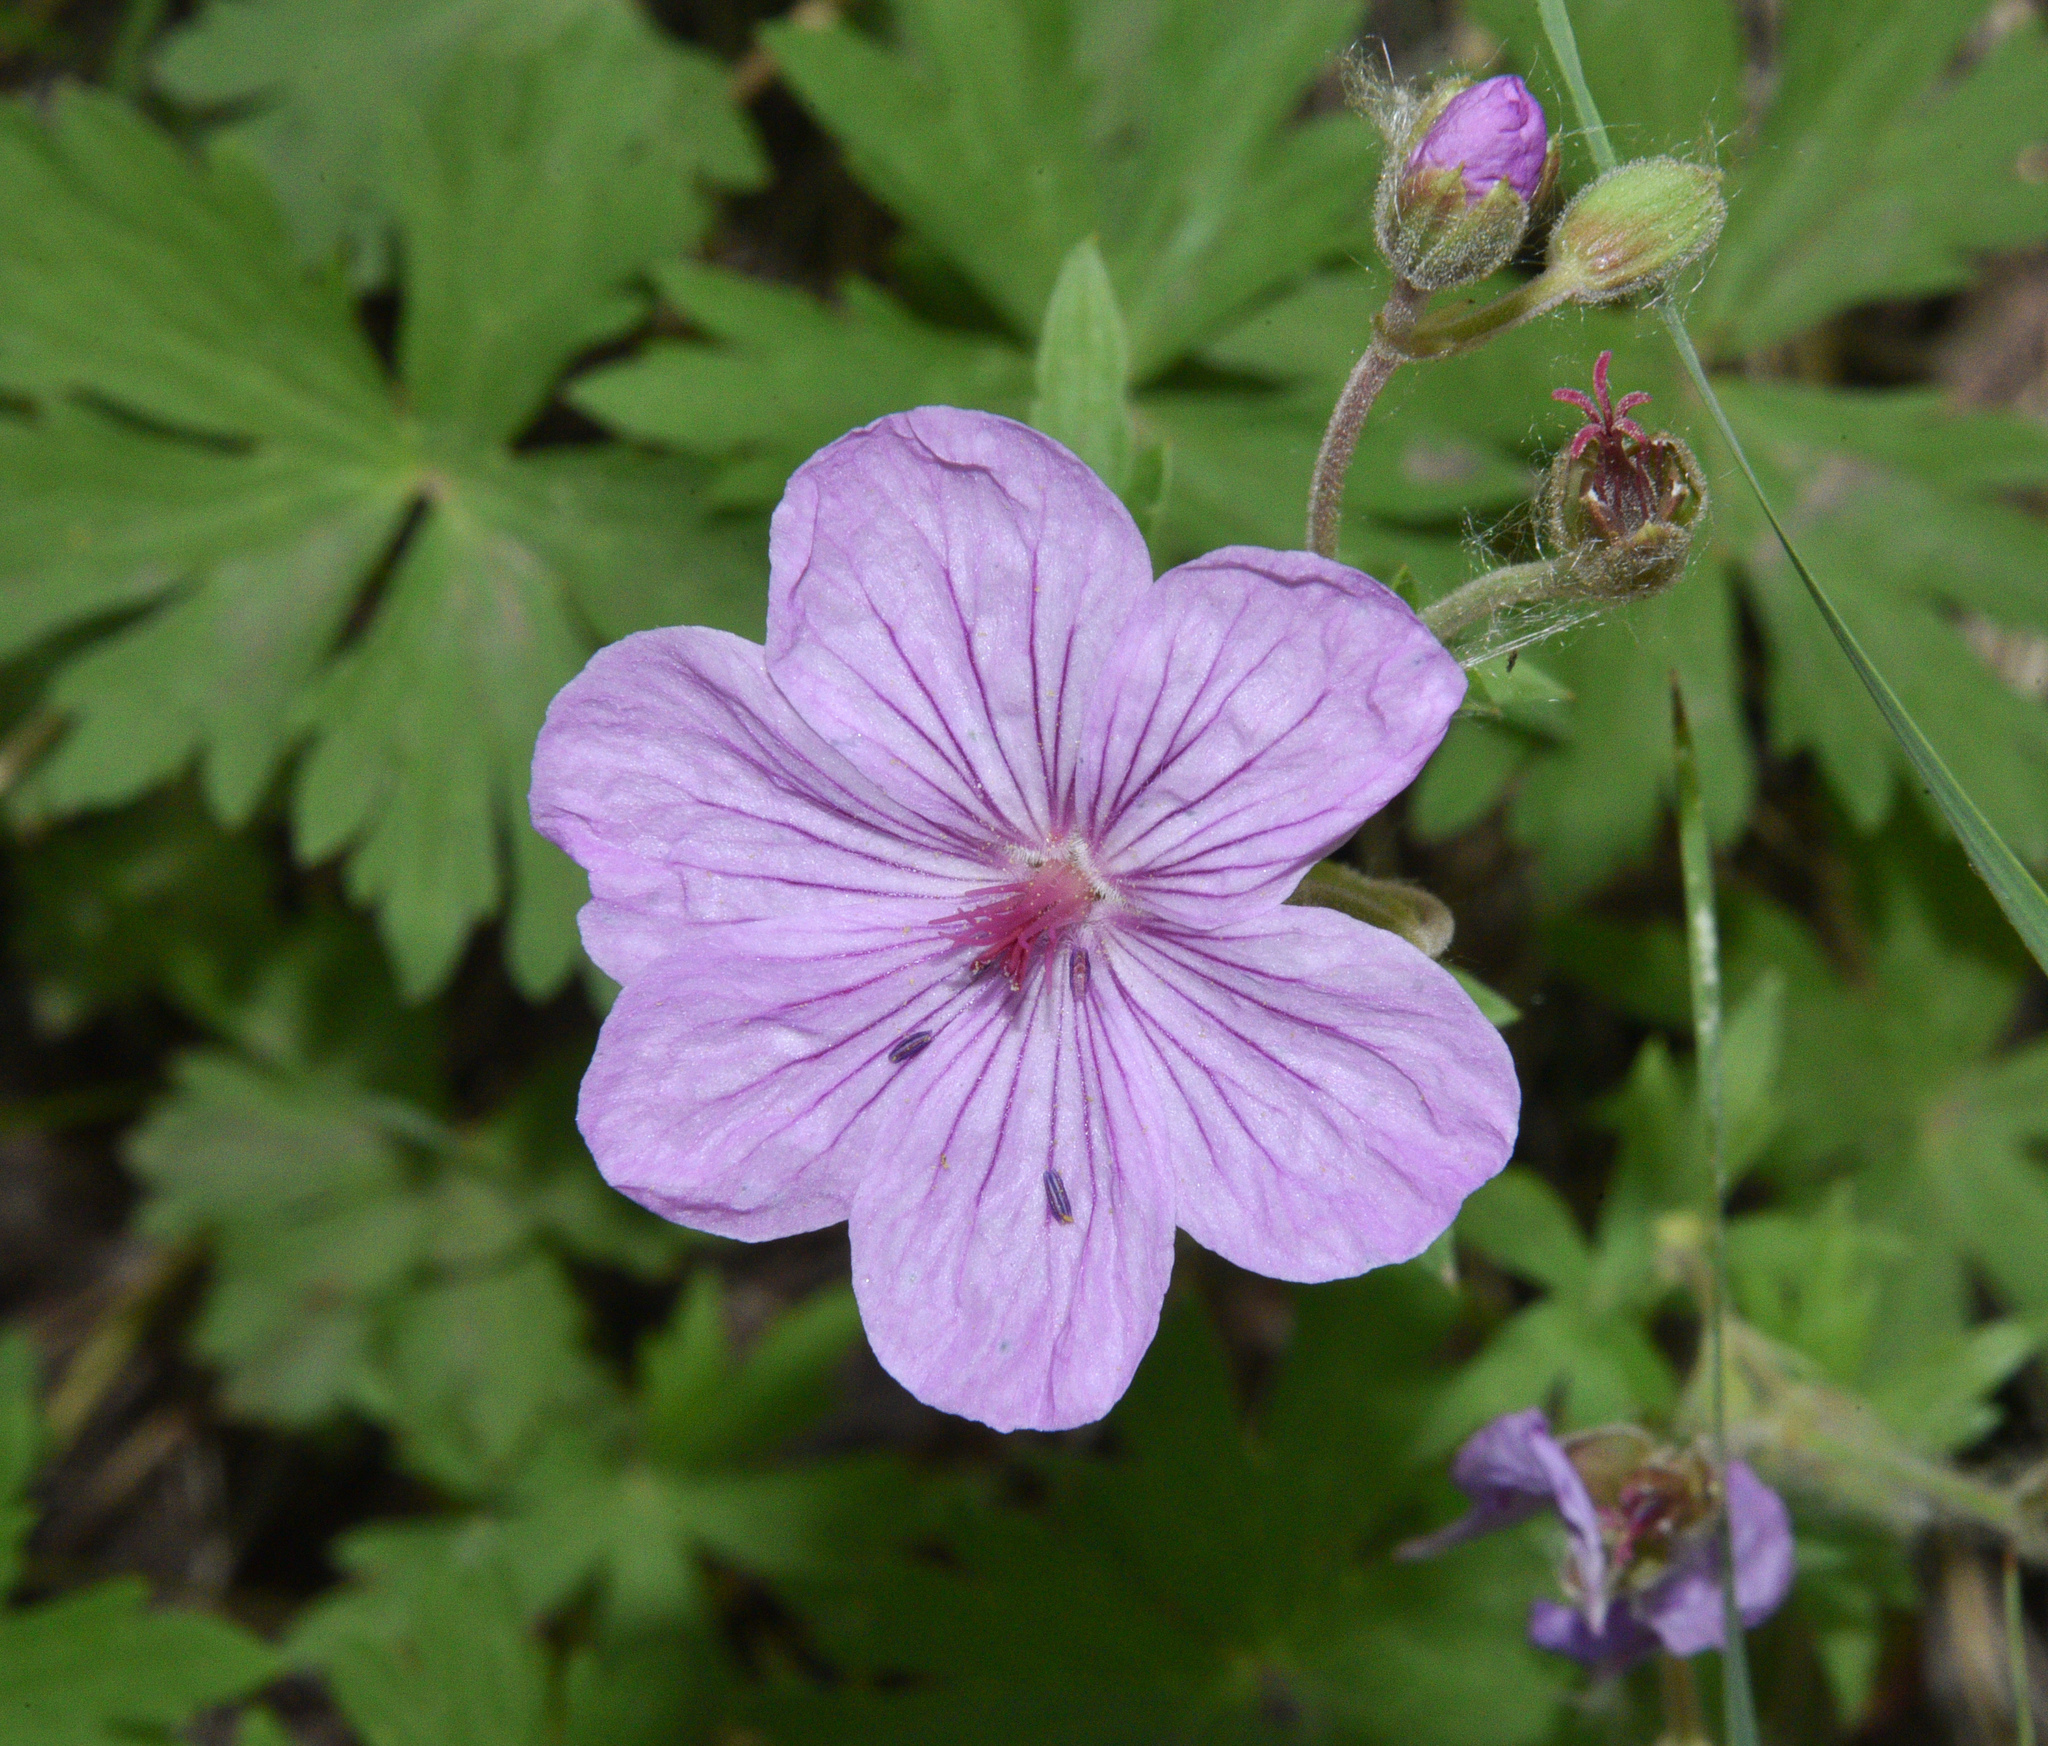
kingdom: Plantae
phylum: Tracheophyta
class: Magnoliopsida
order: Geraniales
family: Geraniaceae
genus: Geranium
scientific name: Geranium viscosissimum
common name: Purple geranium
